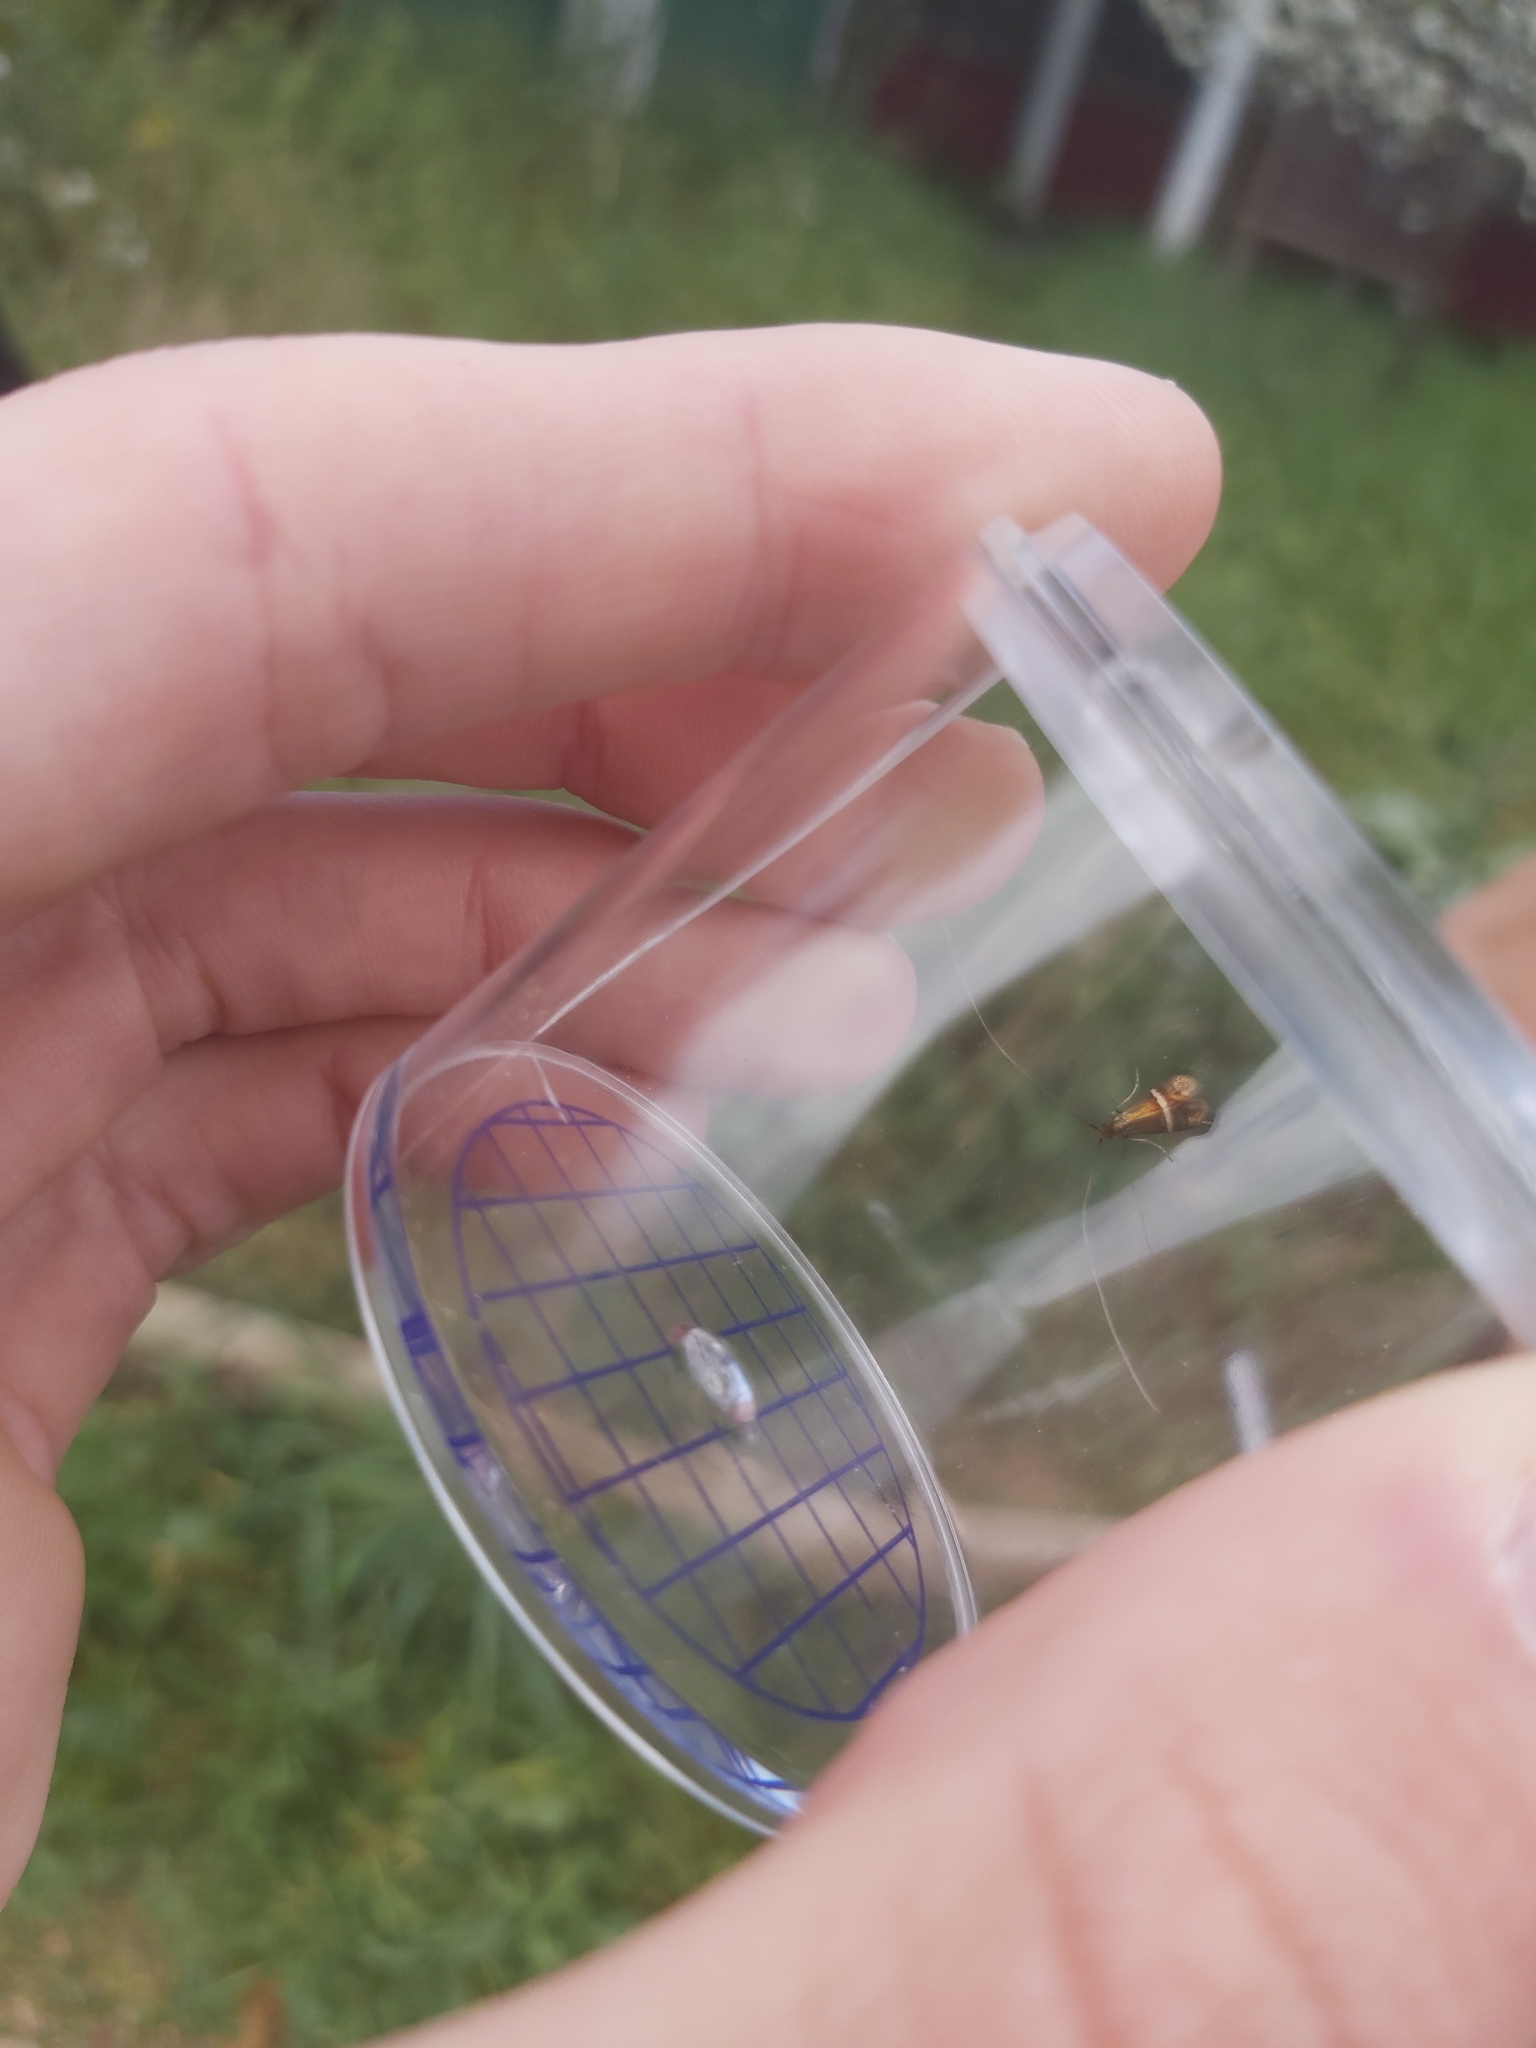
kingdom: Animalia
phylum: Arthropoda
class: Insecta
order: Lepidoptera
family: Adelidae
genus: Adela
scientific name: Adela australis
